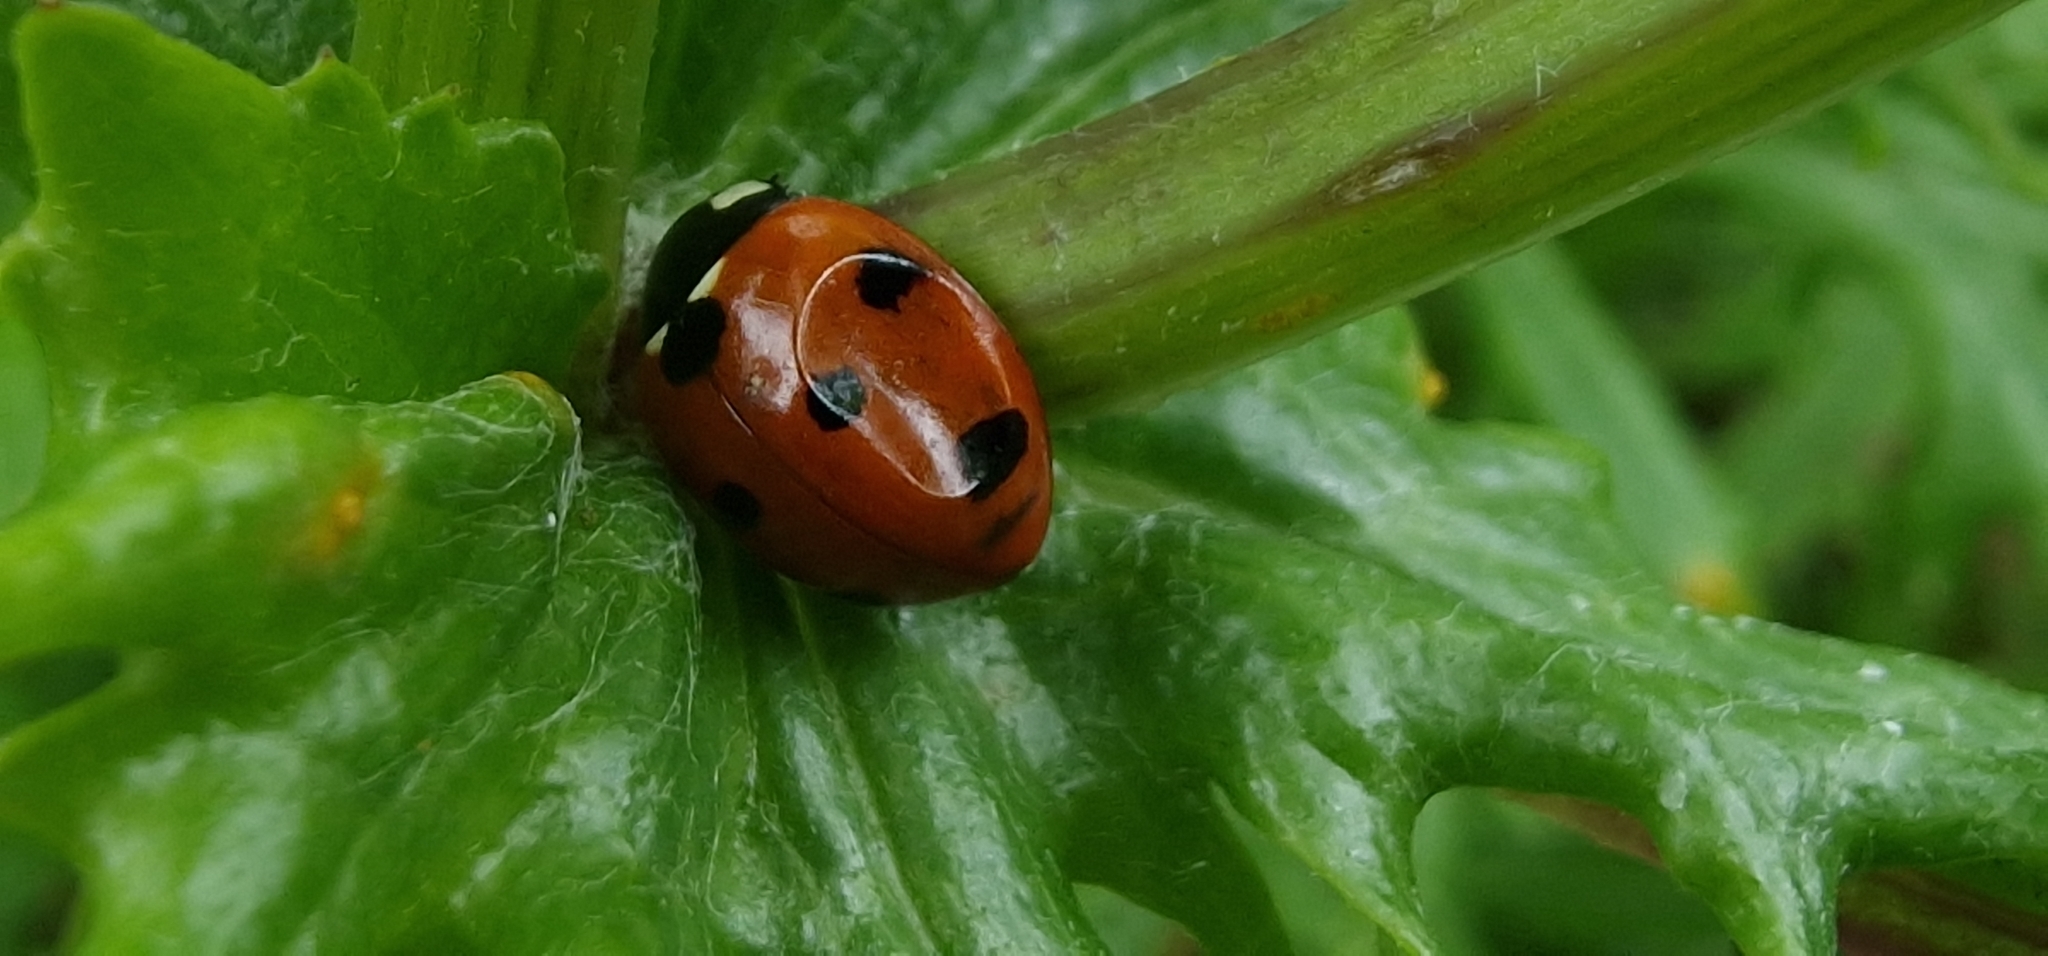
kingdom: Animalia
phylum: Arthropoda
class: Insecta
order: Coleoptera
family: Coccinellidae
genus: Coccinella
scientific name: Coccinella septempunctata
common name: Sevenspotted lady beetle
